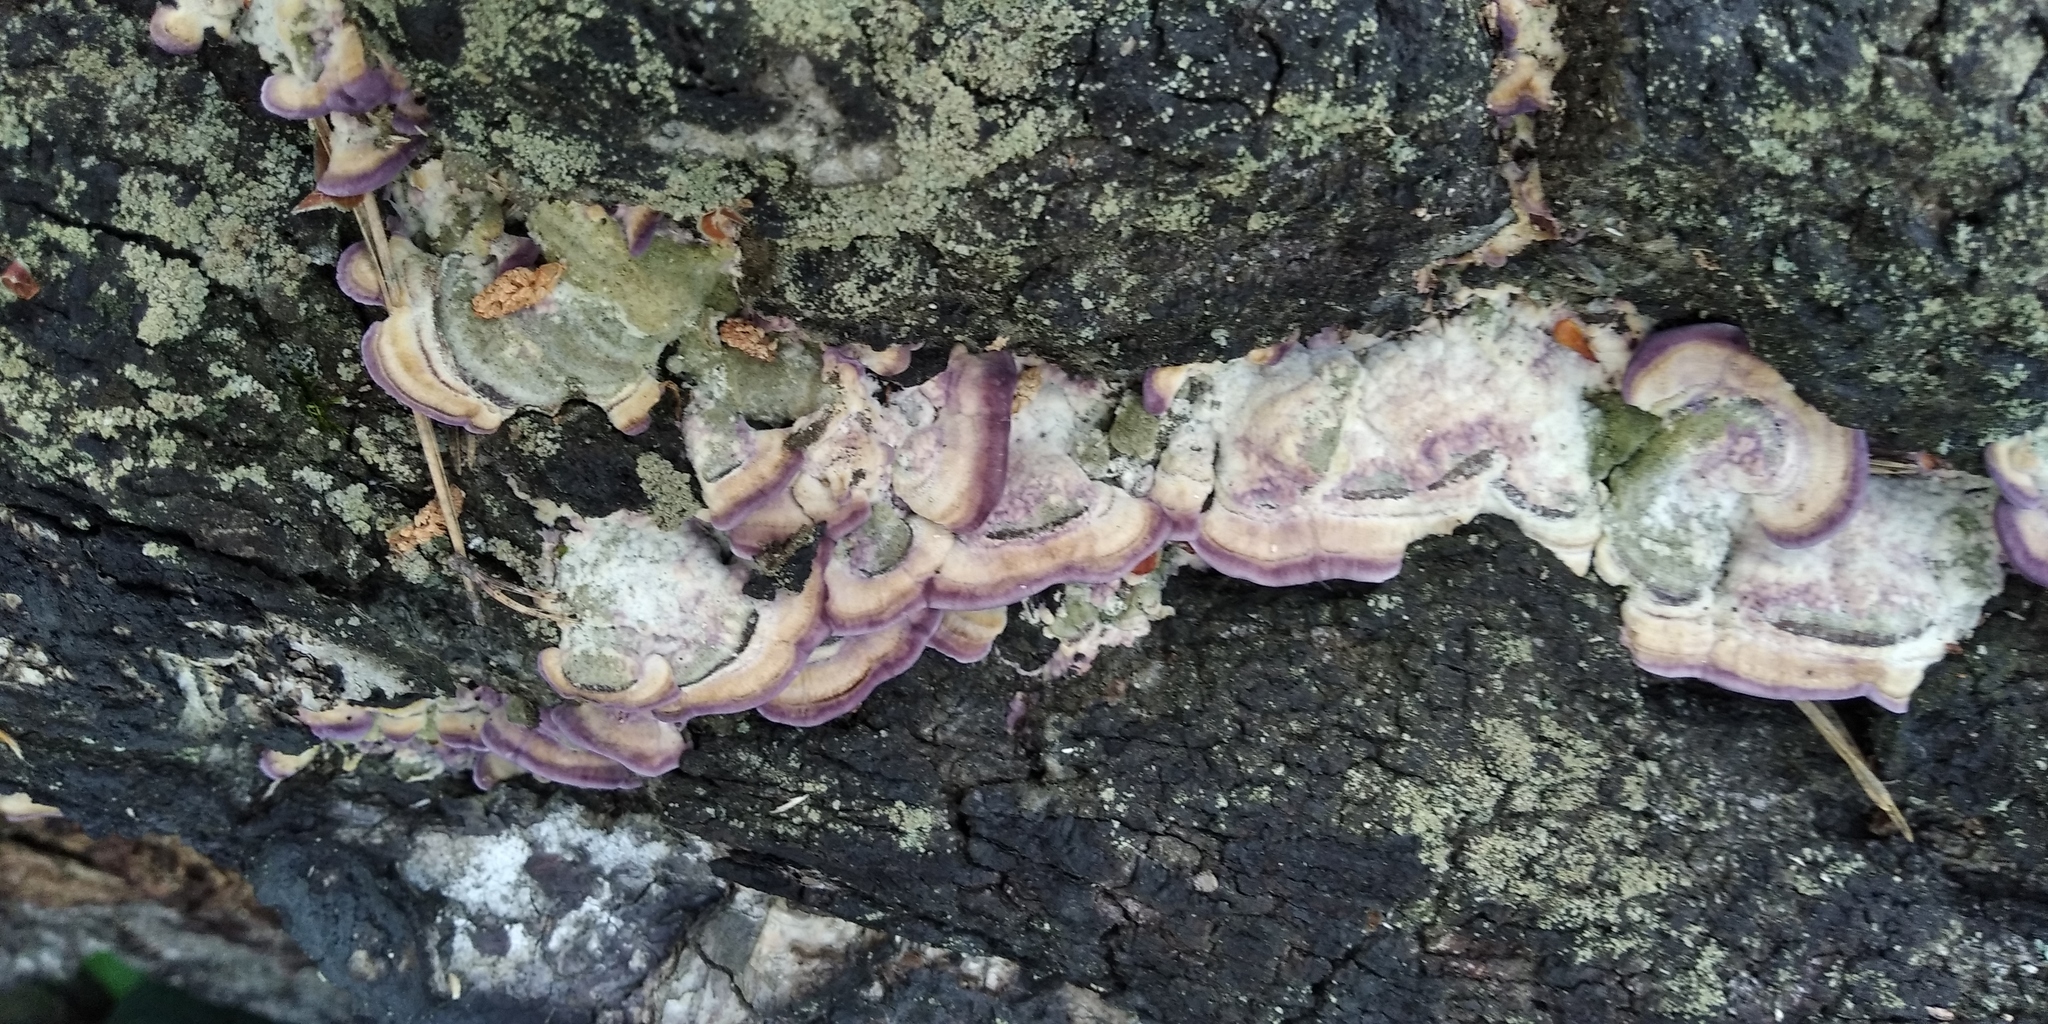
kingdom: Fungi
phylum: Basidiomycota
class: Agaricomycetes
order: Hymenochaetales
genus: Trichaptum
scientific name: Trichaptum biforme
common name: Violet-toothed polypore
